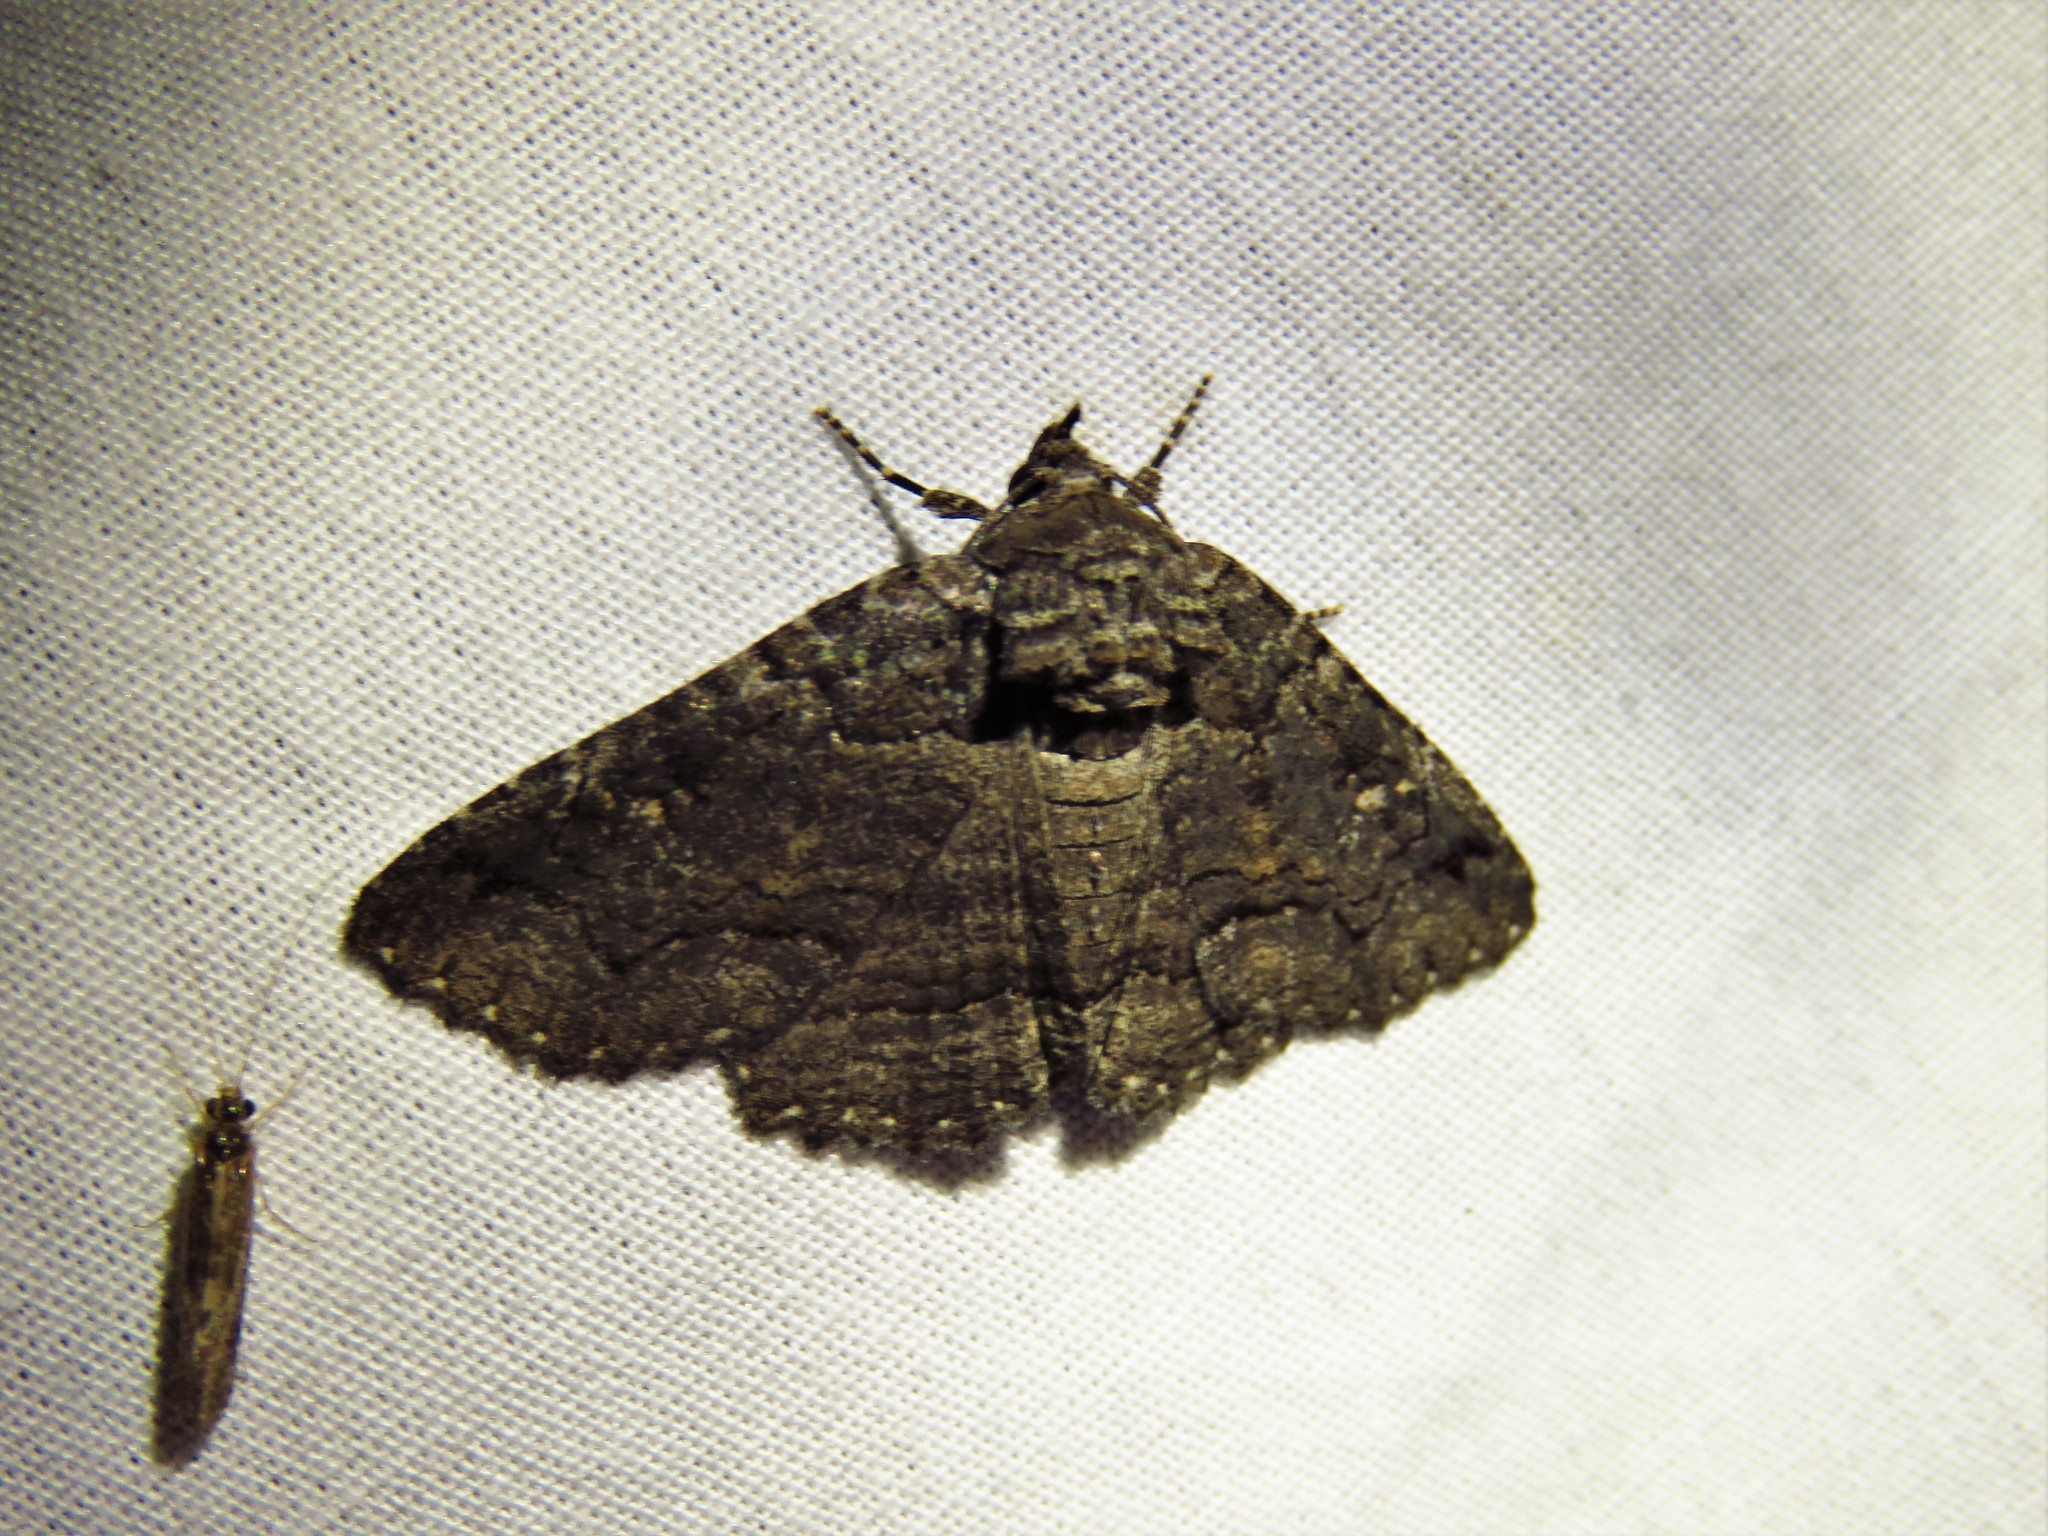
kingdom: Animalia
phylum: Arthropoda
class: Insecta
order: Lepidoptera
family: Erebidae
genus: Zale
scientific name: Zale edusina
